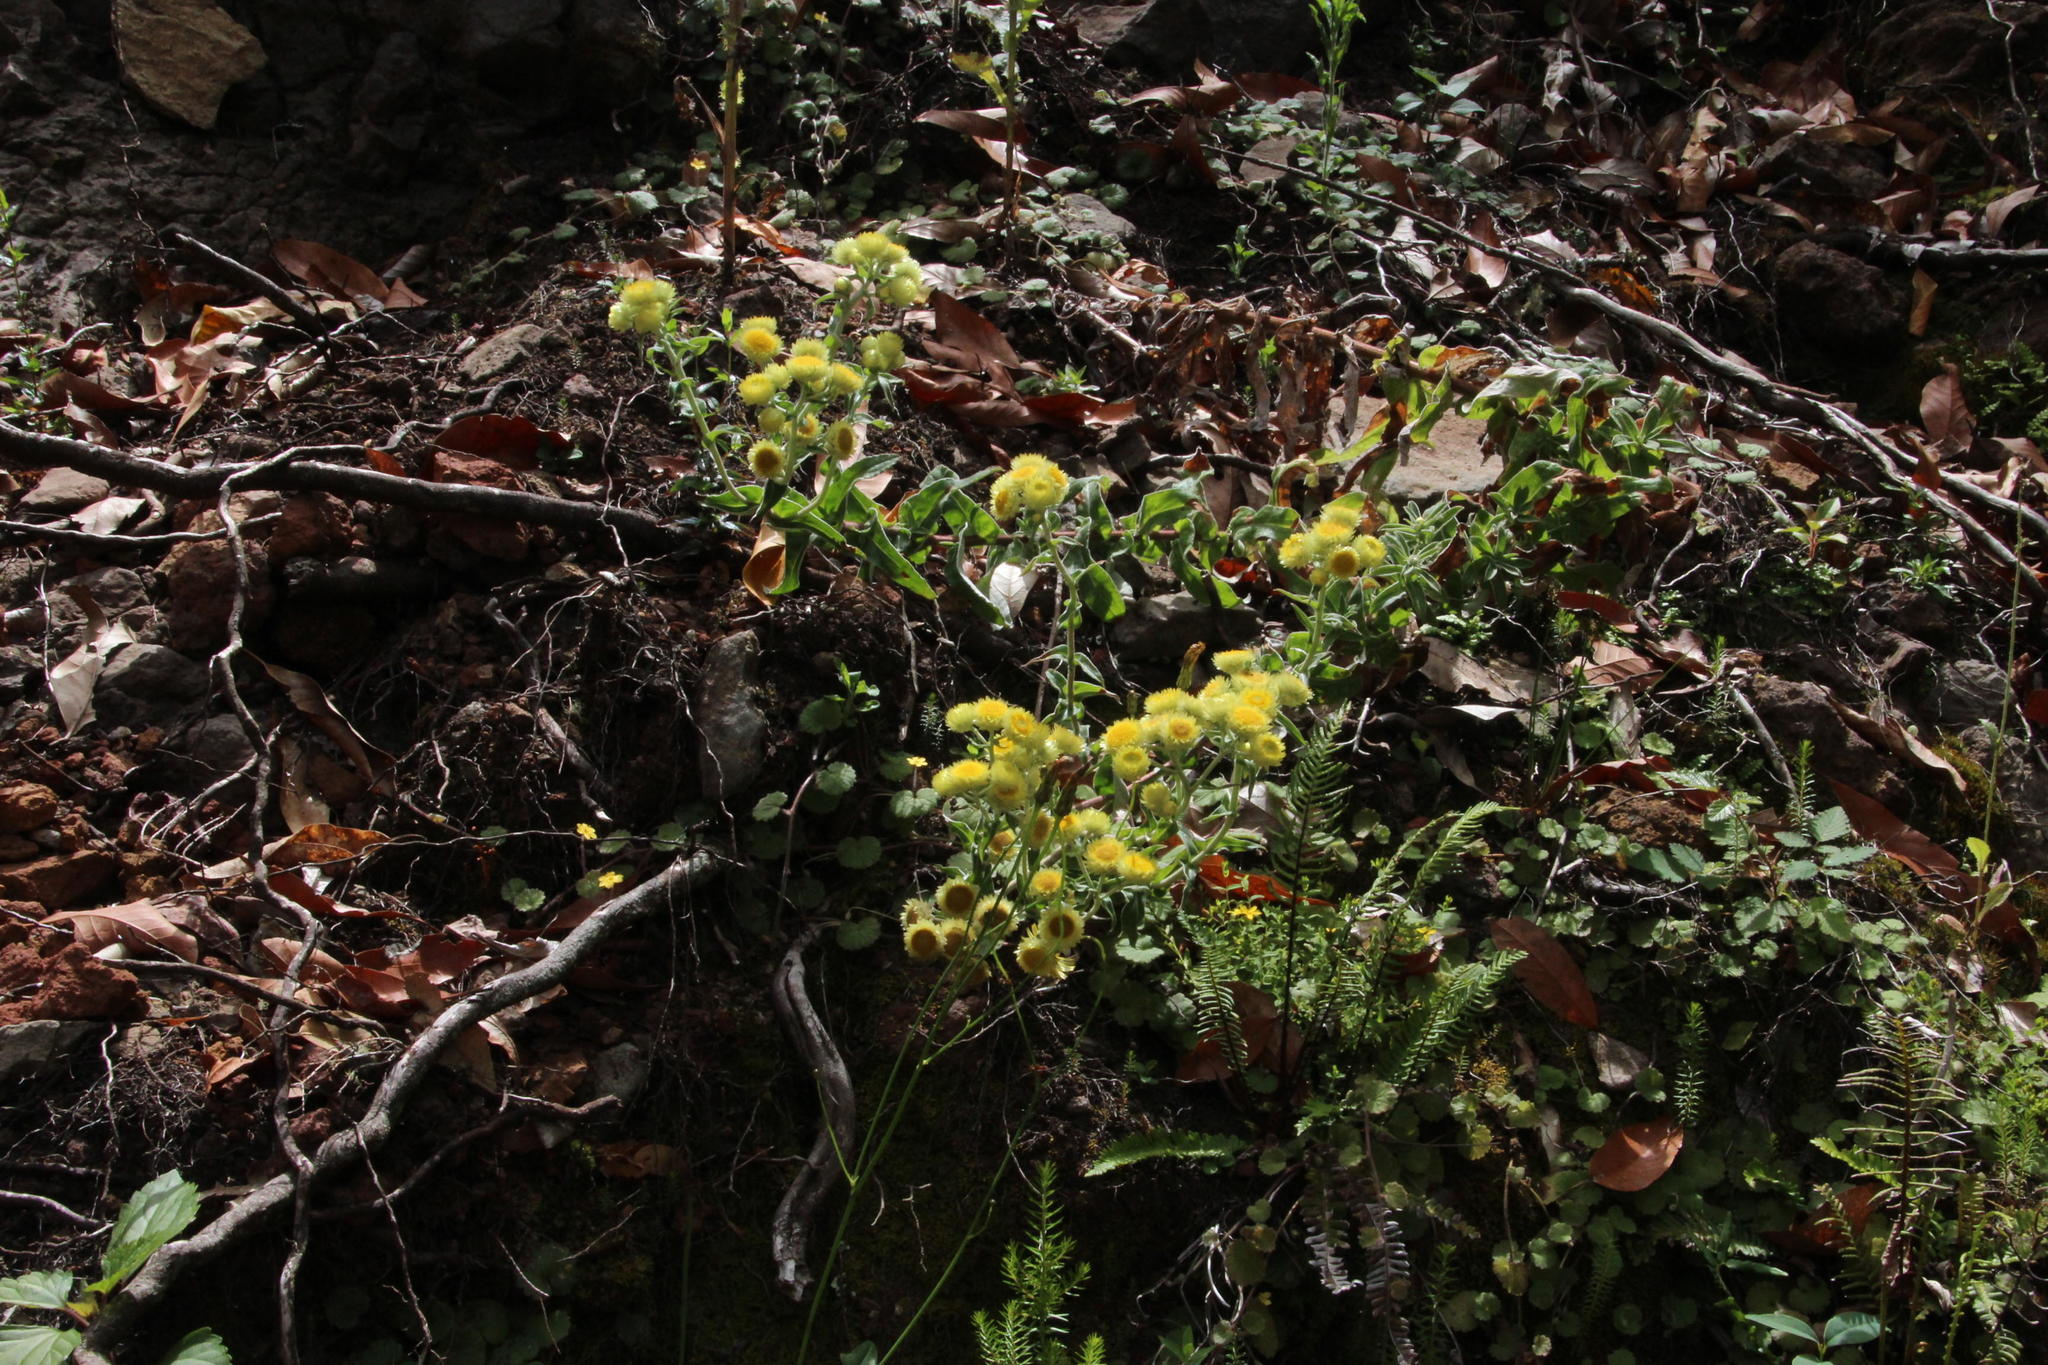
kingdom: Plantae
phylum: Tracheophyta
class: Magnoliopsida
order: Asterales
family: Asteraceae
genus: Helichrysum
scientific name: Helichrysum foetidum
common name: Stinking everlasting
